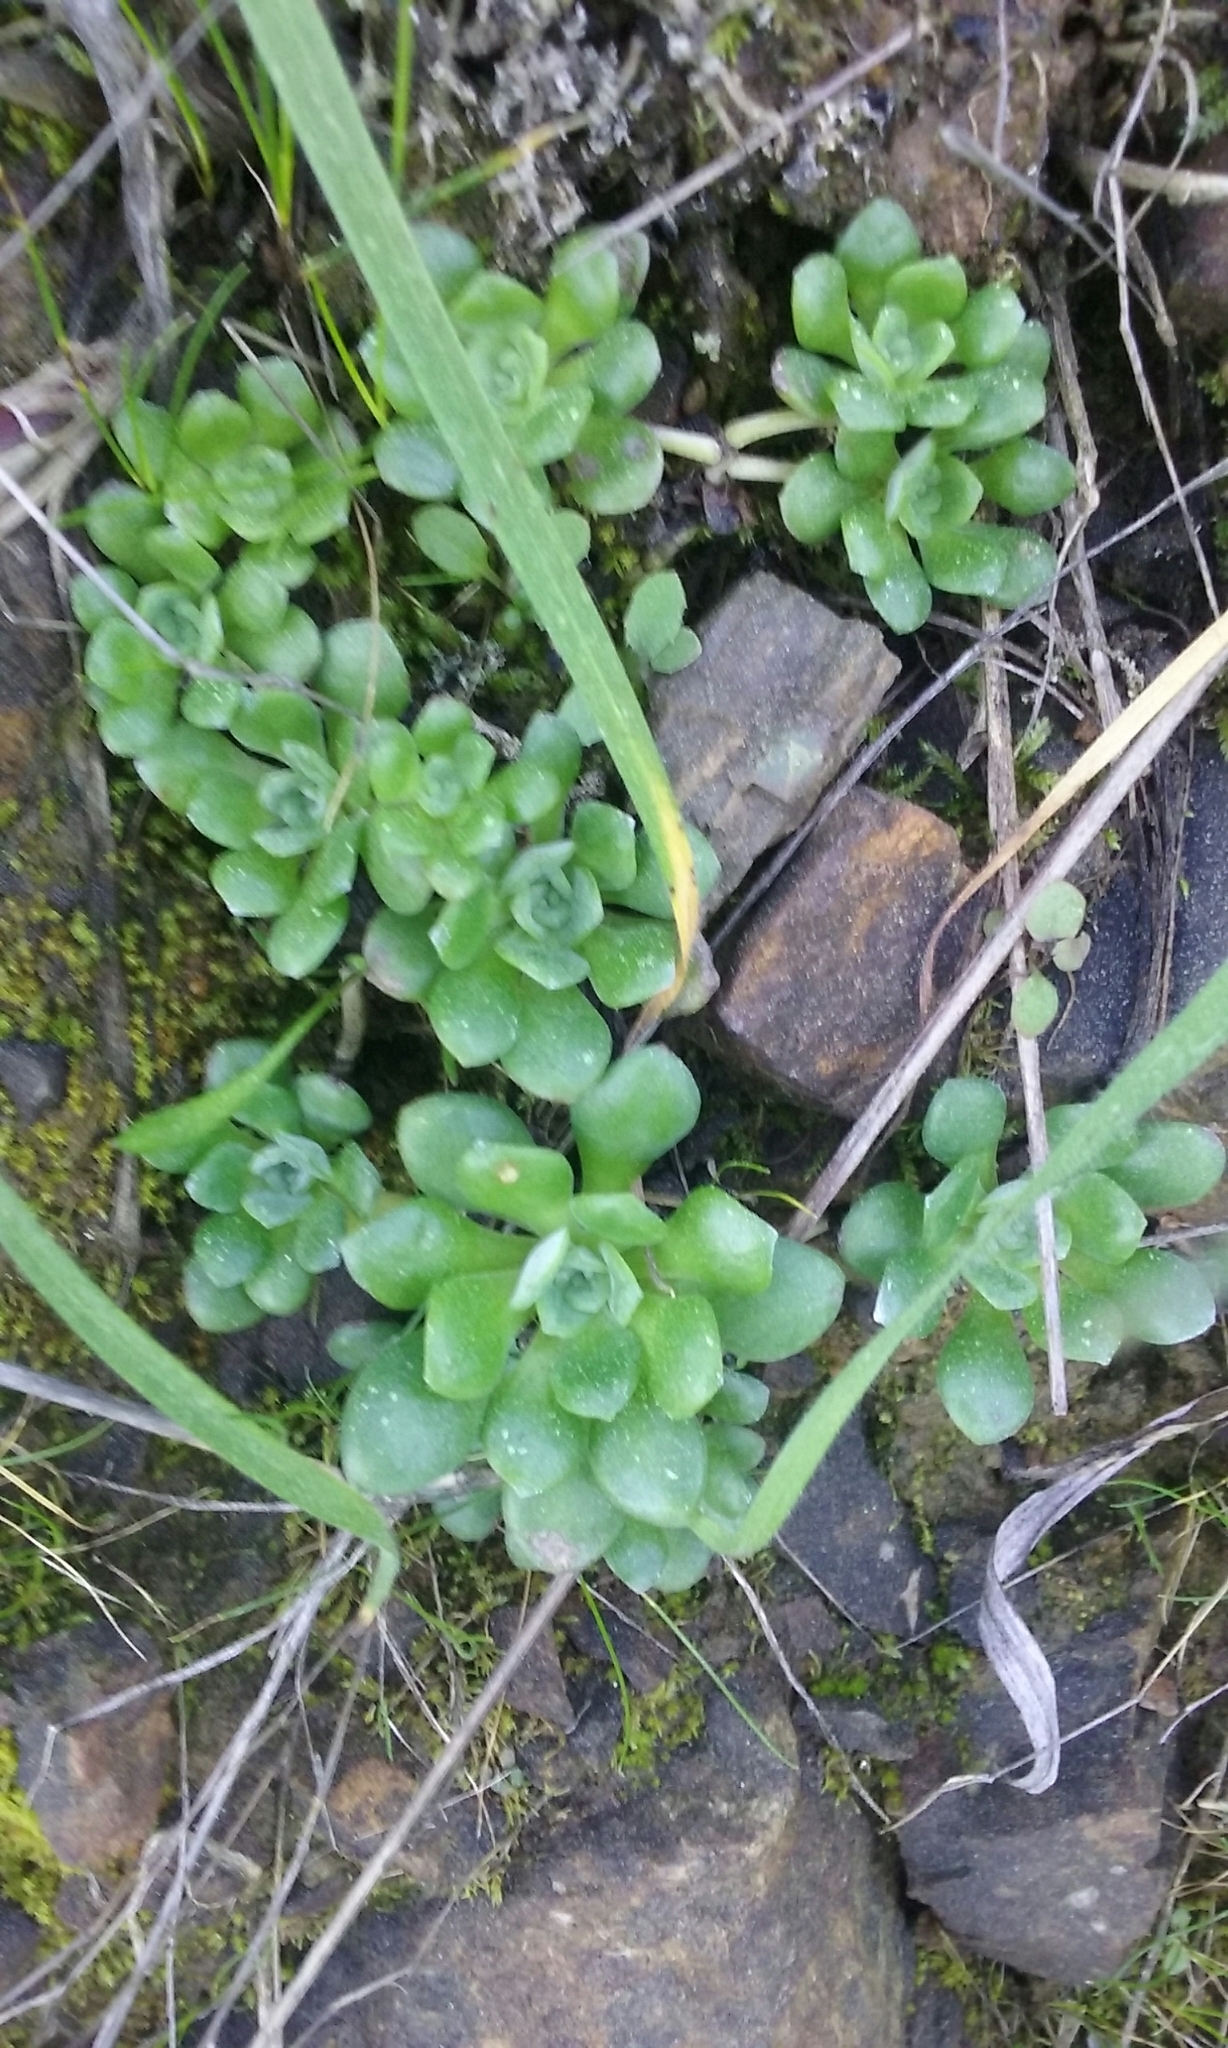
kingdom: Plantae
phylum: Tracheophyta
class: Magnoliopsida
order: Saxifragales
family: Crassulaceae
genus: Sedum
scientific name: Sedum spathulifolium
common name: Colorado stonecrop
